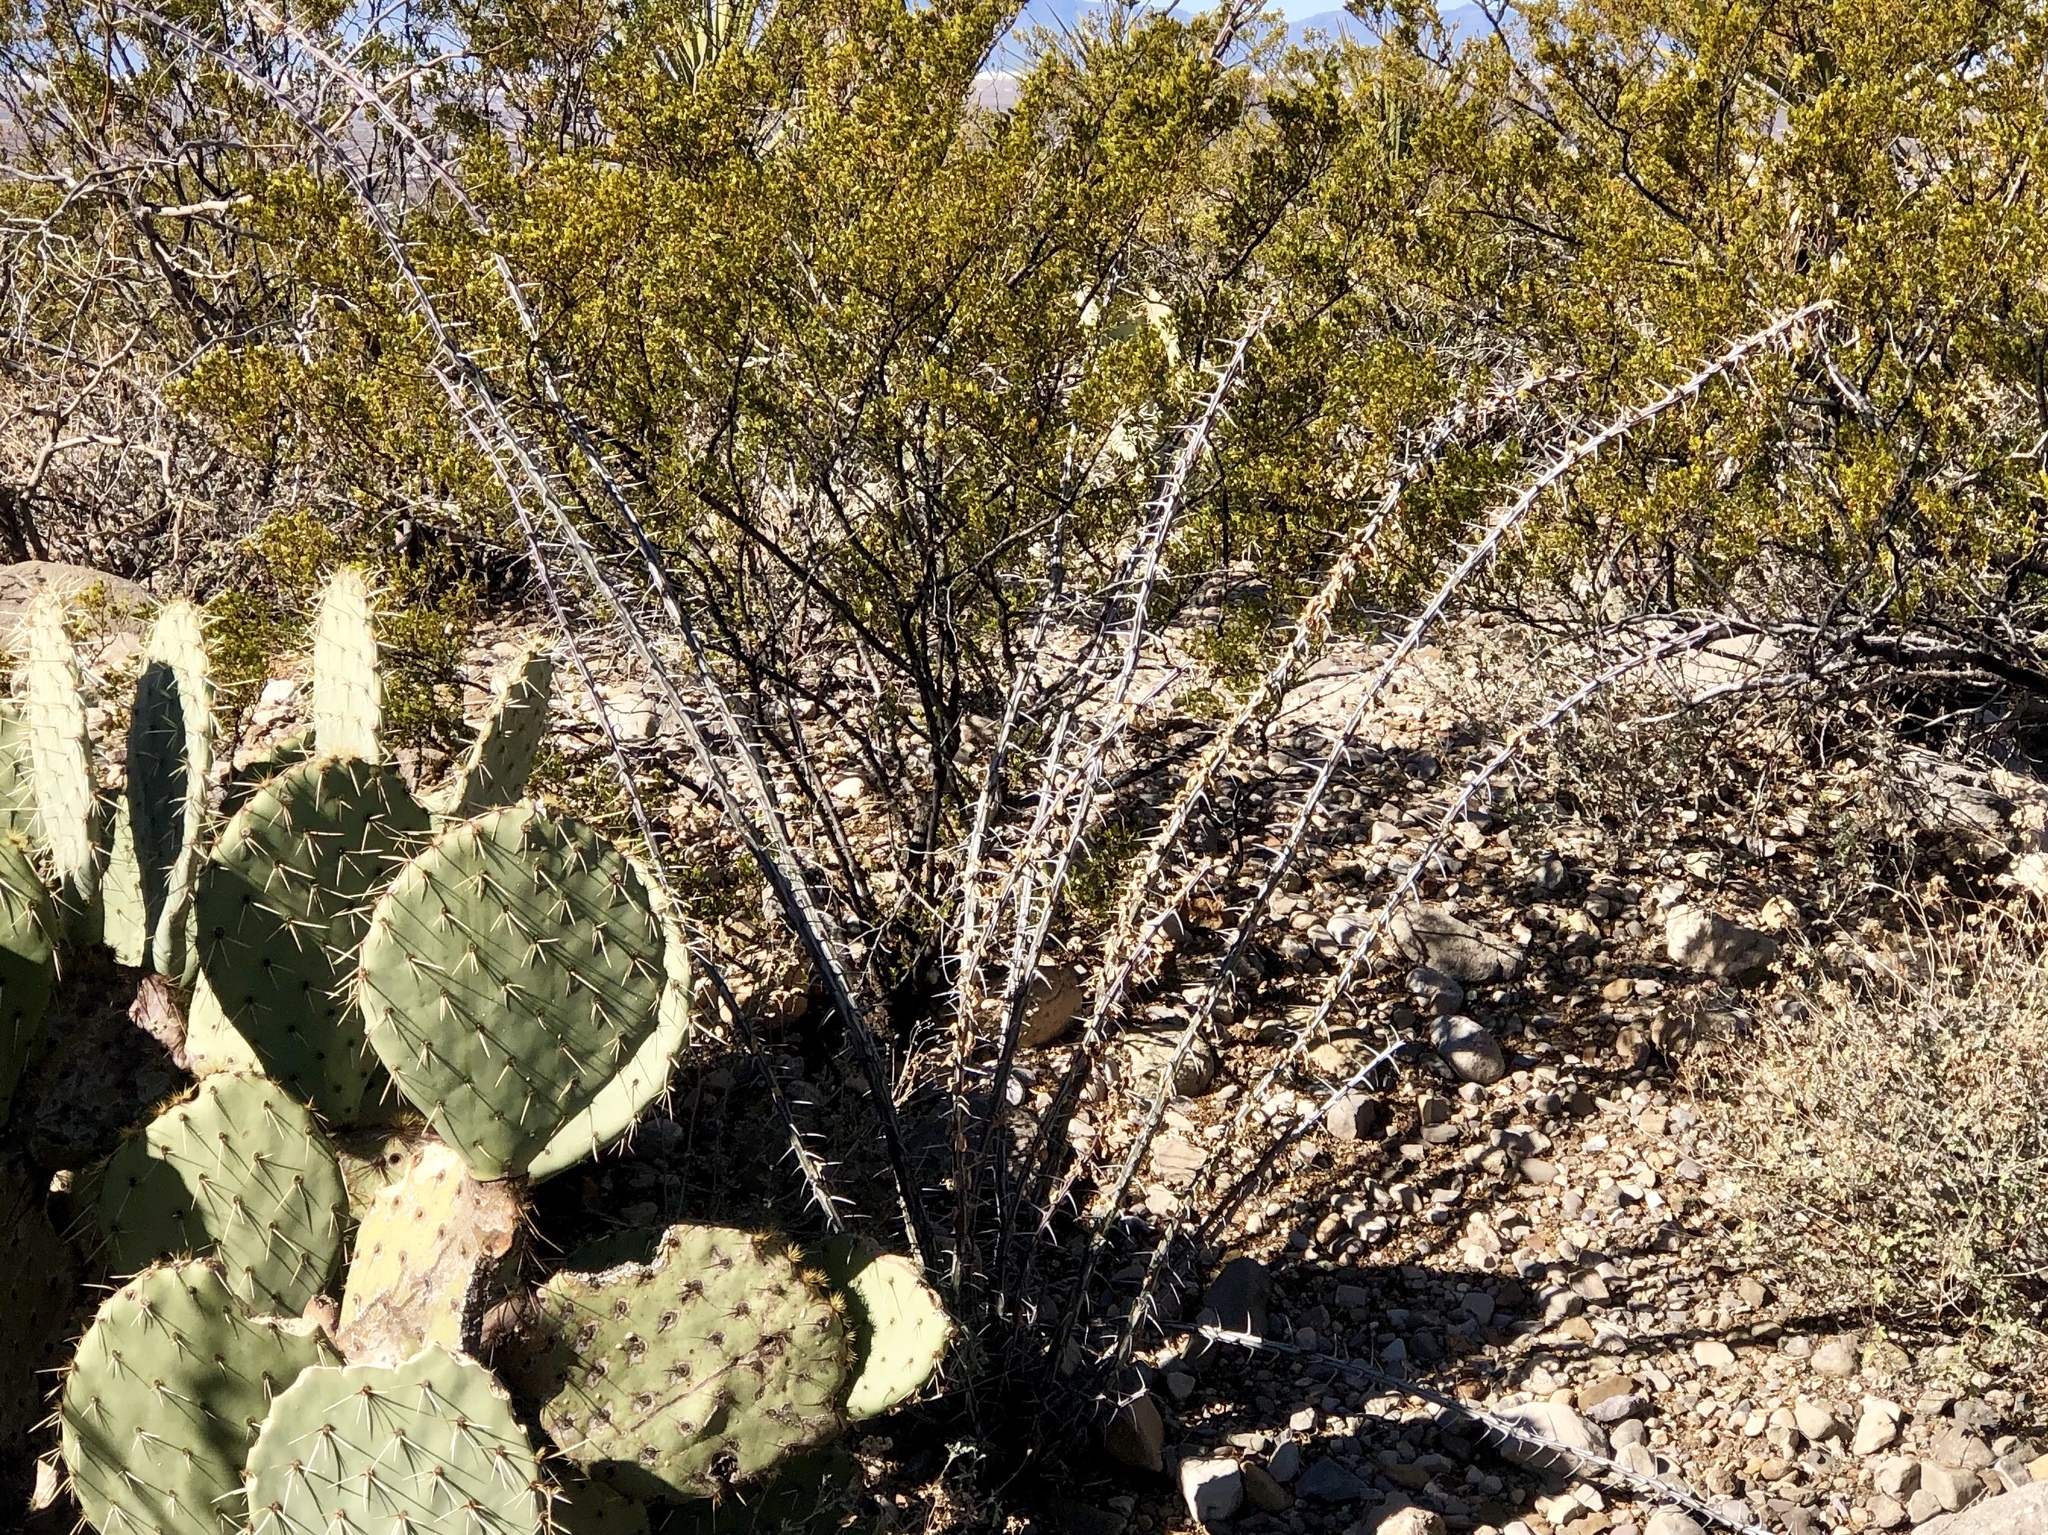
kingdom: Plantae
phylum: Tracheophyta
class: Magnoliopsida
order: Ericales
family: Fouquieriaceae
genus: Fouquieria
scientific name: Fouquieria splendens
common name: Vine-cactus
